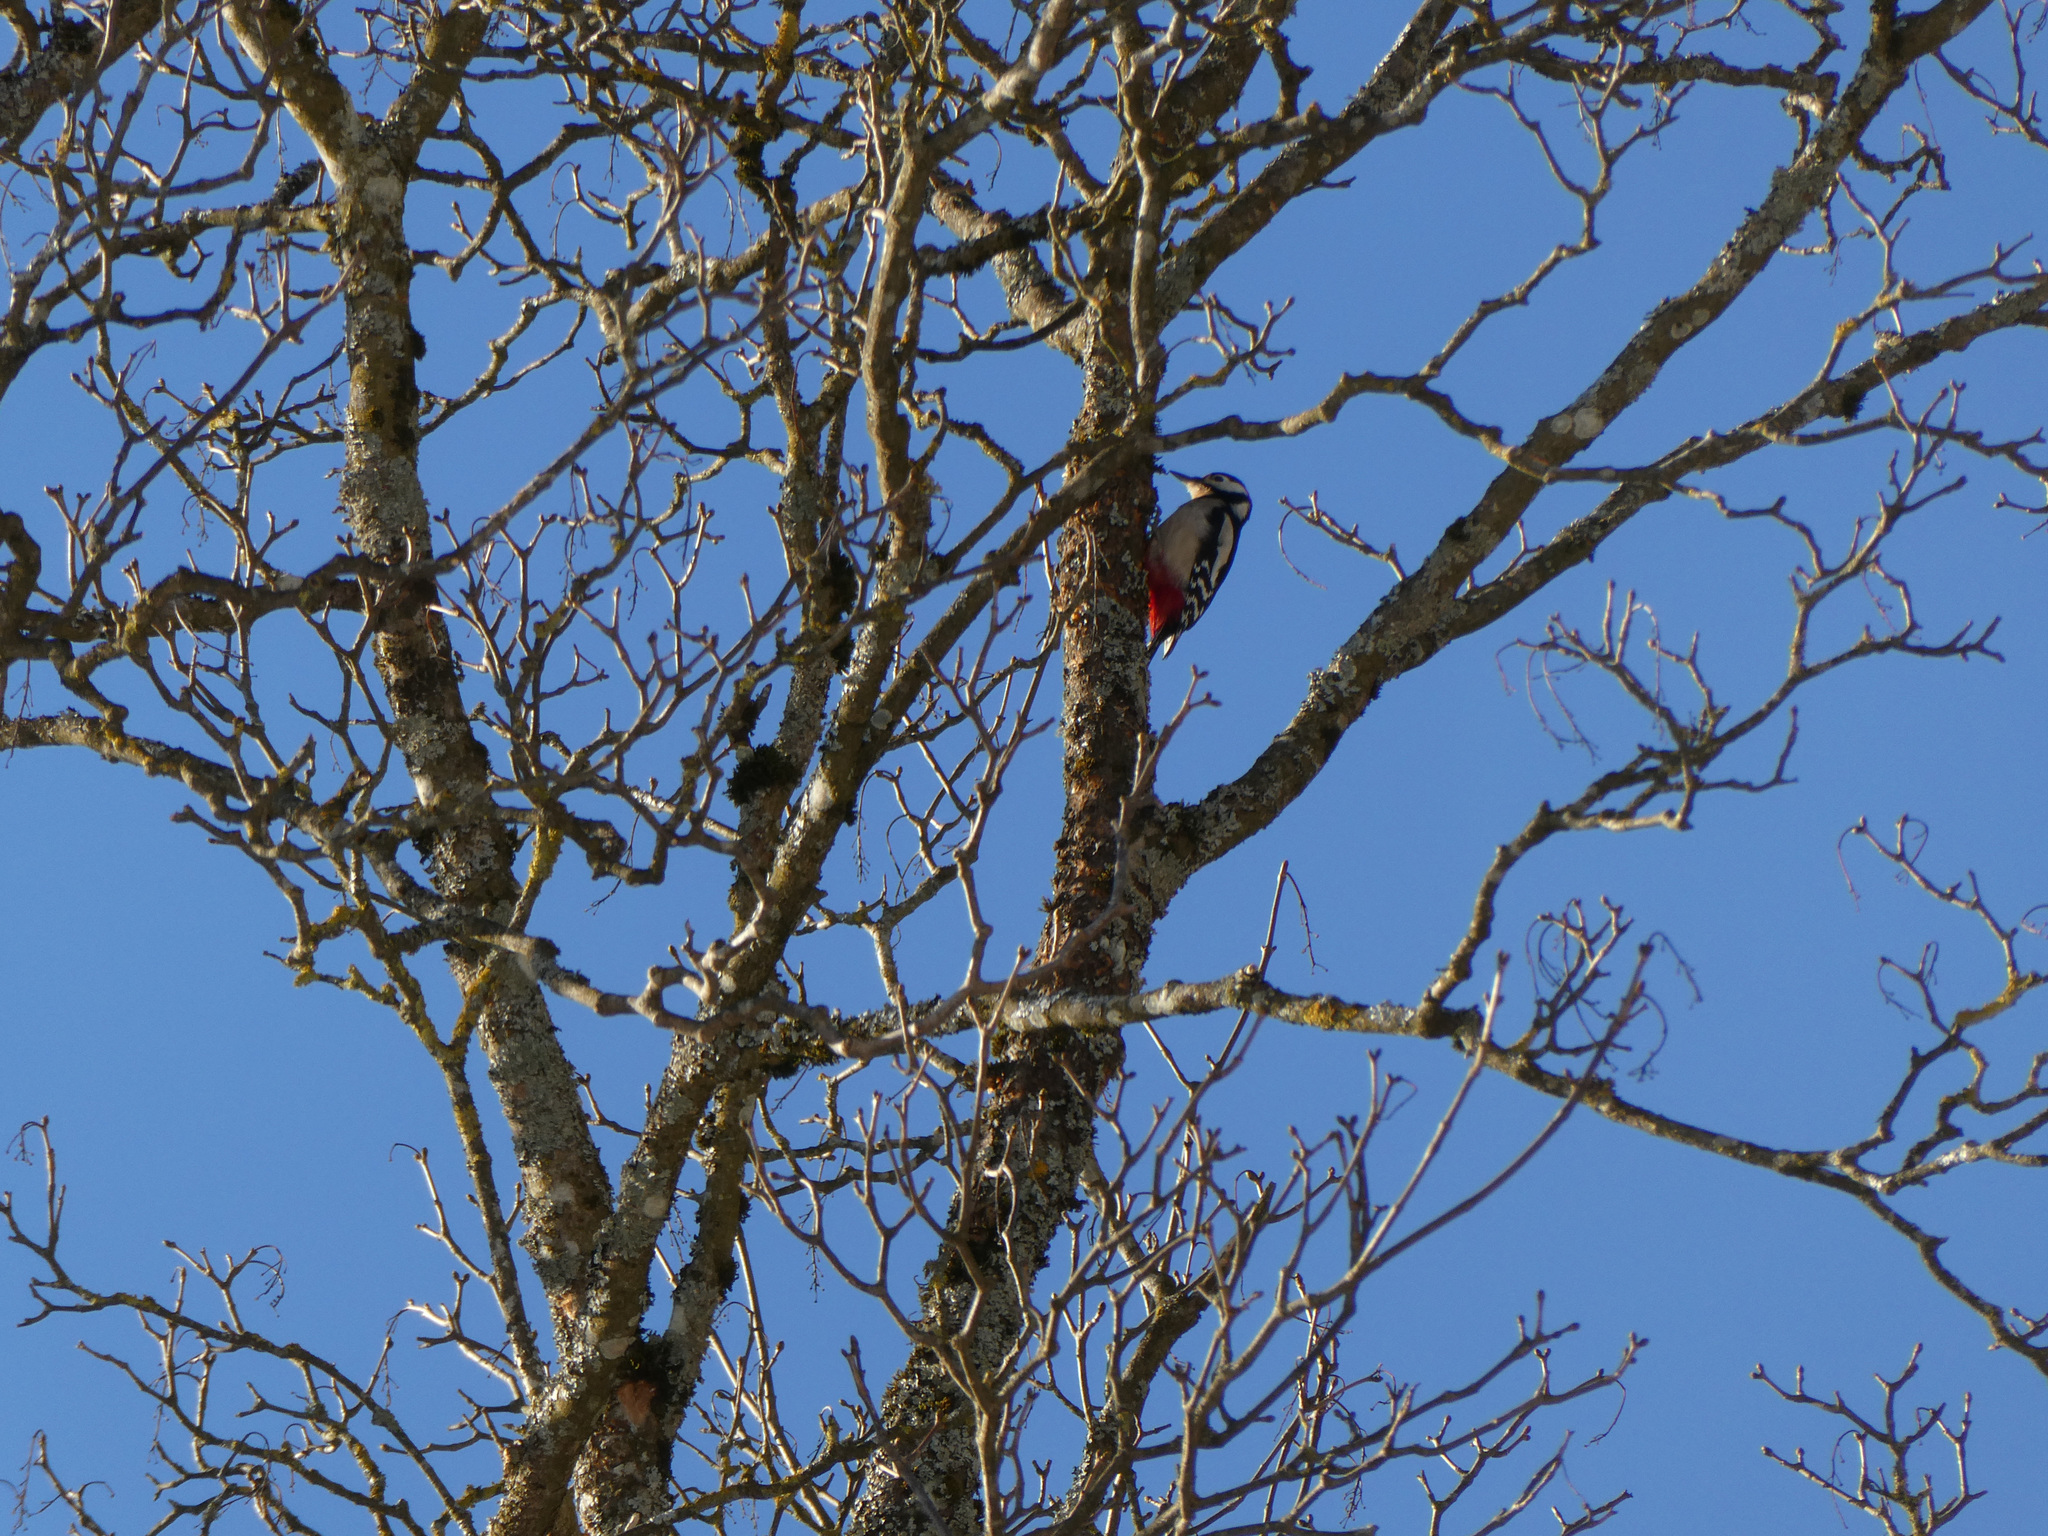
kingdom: Animalia
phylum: Chordata
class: Aves
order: Piciformes
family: Picidae
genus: Dendrocopos
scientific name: Dendrocopos major
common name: Great spotted woodpecker
